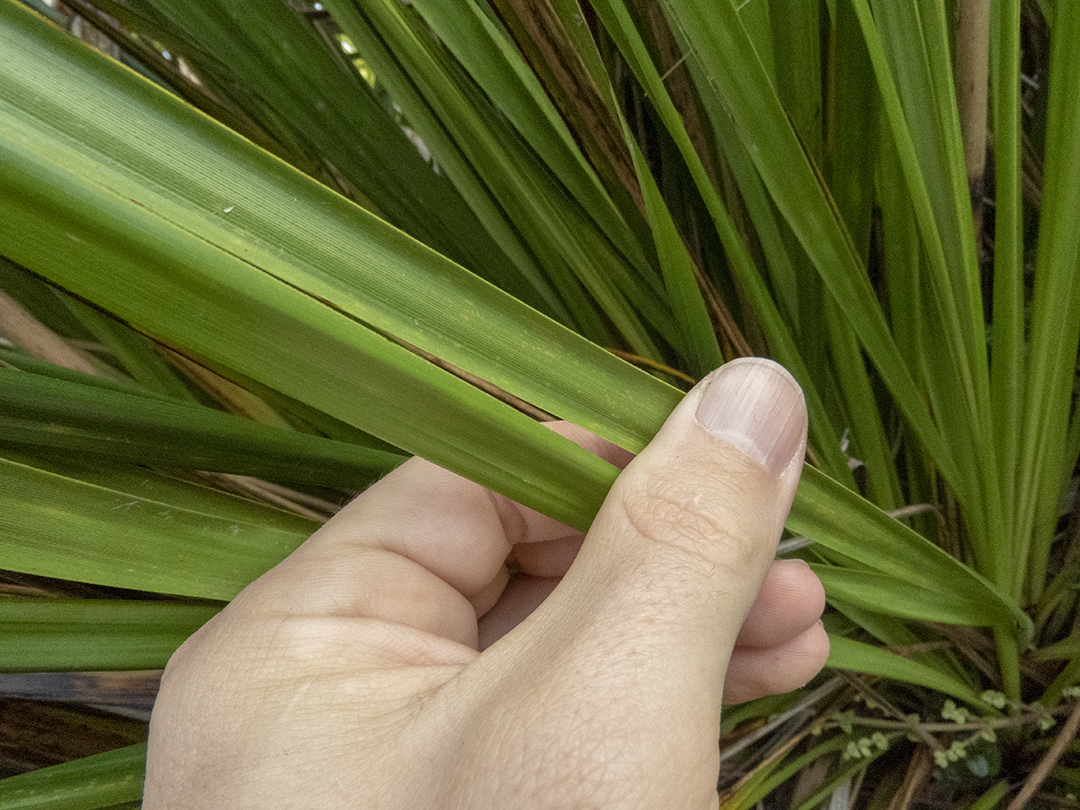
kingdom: Plantae
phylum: Tracheophyta
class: Liliopsida
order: Poales
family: Cyperaceae
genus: Gahnia
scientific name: Gahnia xanthocarpa
